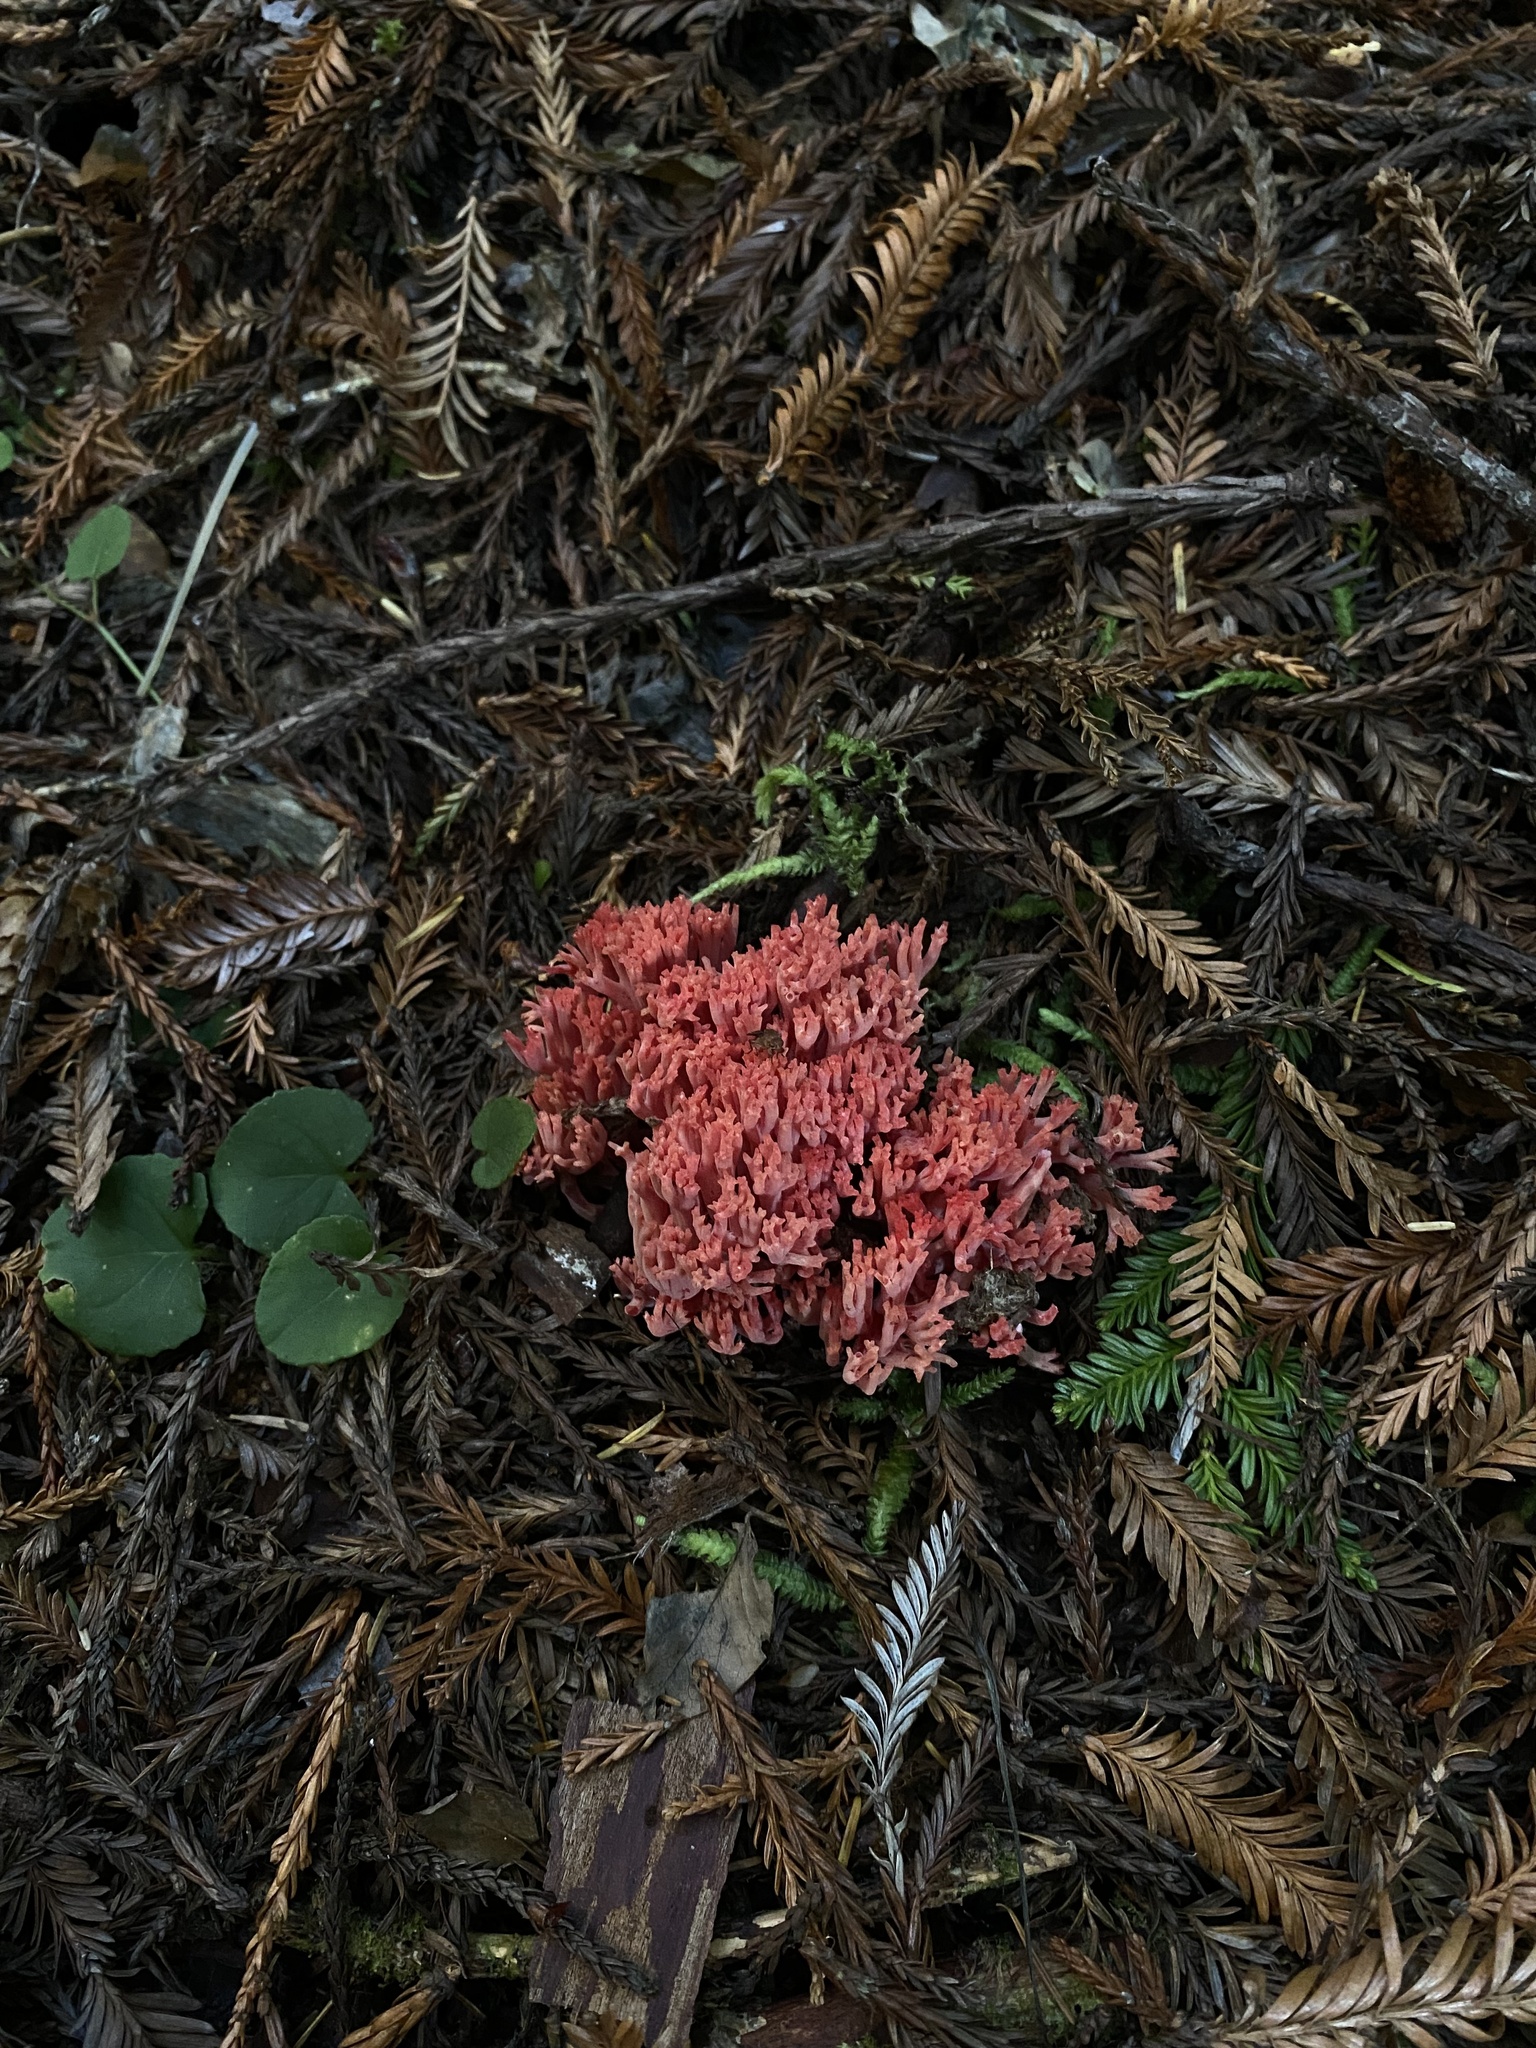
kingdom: Fungi
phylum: Basidiomycota
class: Agaricomycetes
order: Gomphales
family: Gomphaceae
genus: Ramaria
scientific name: Ramaria araiospora
